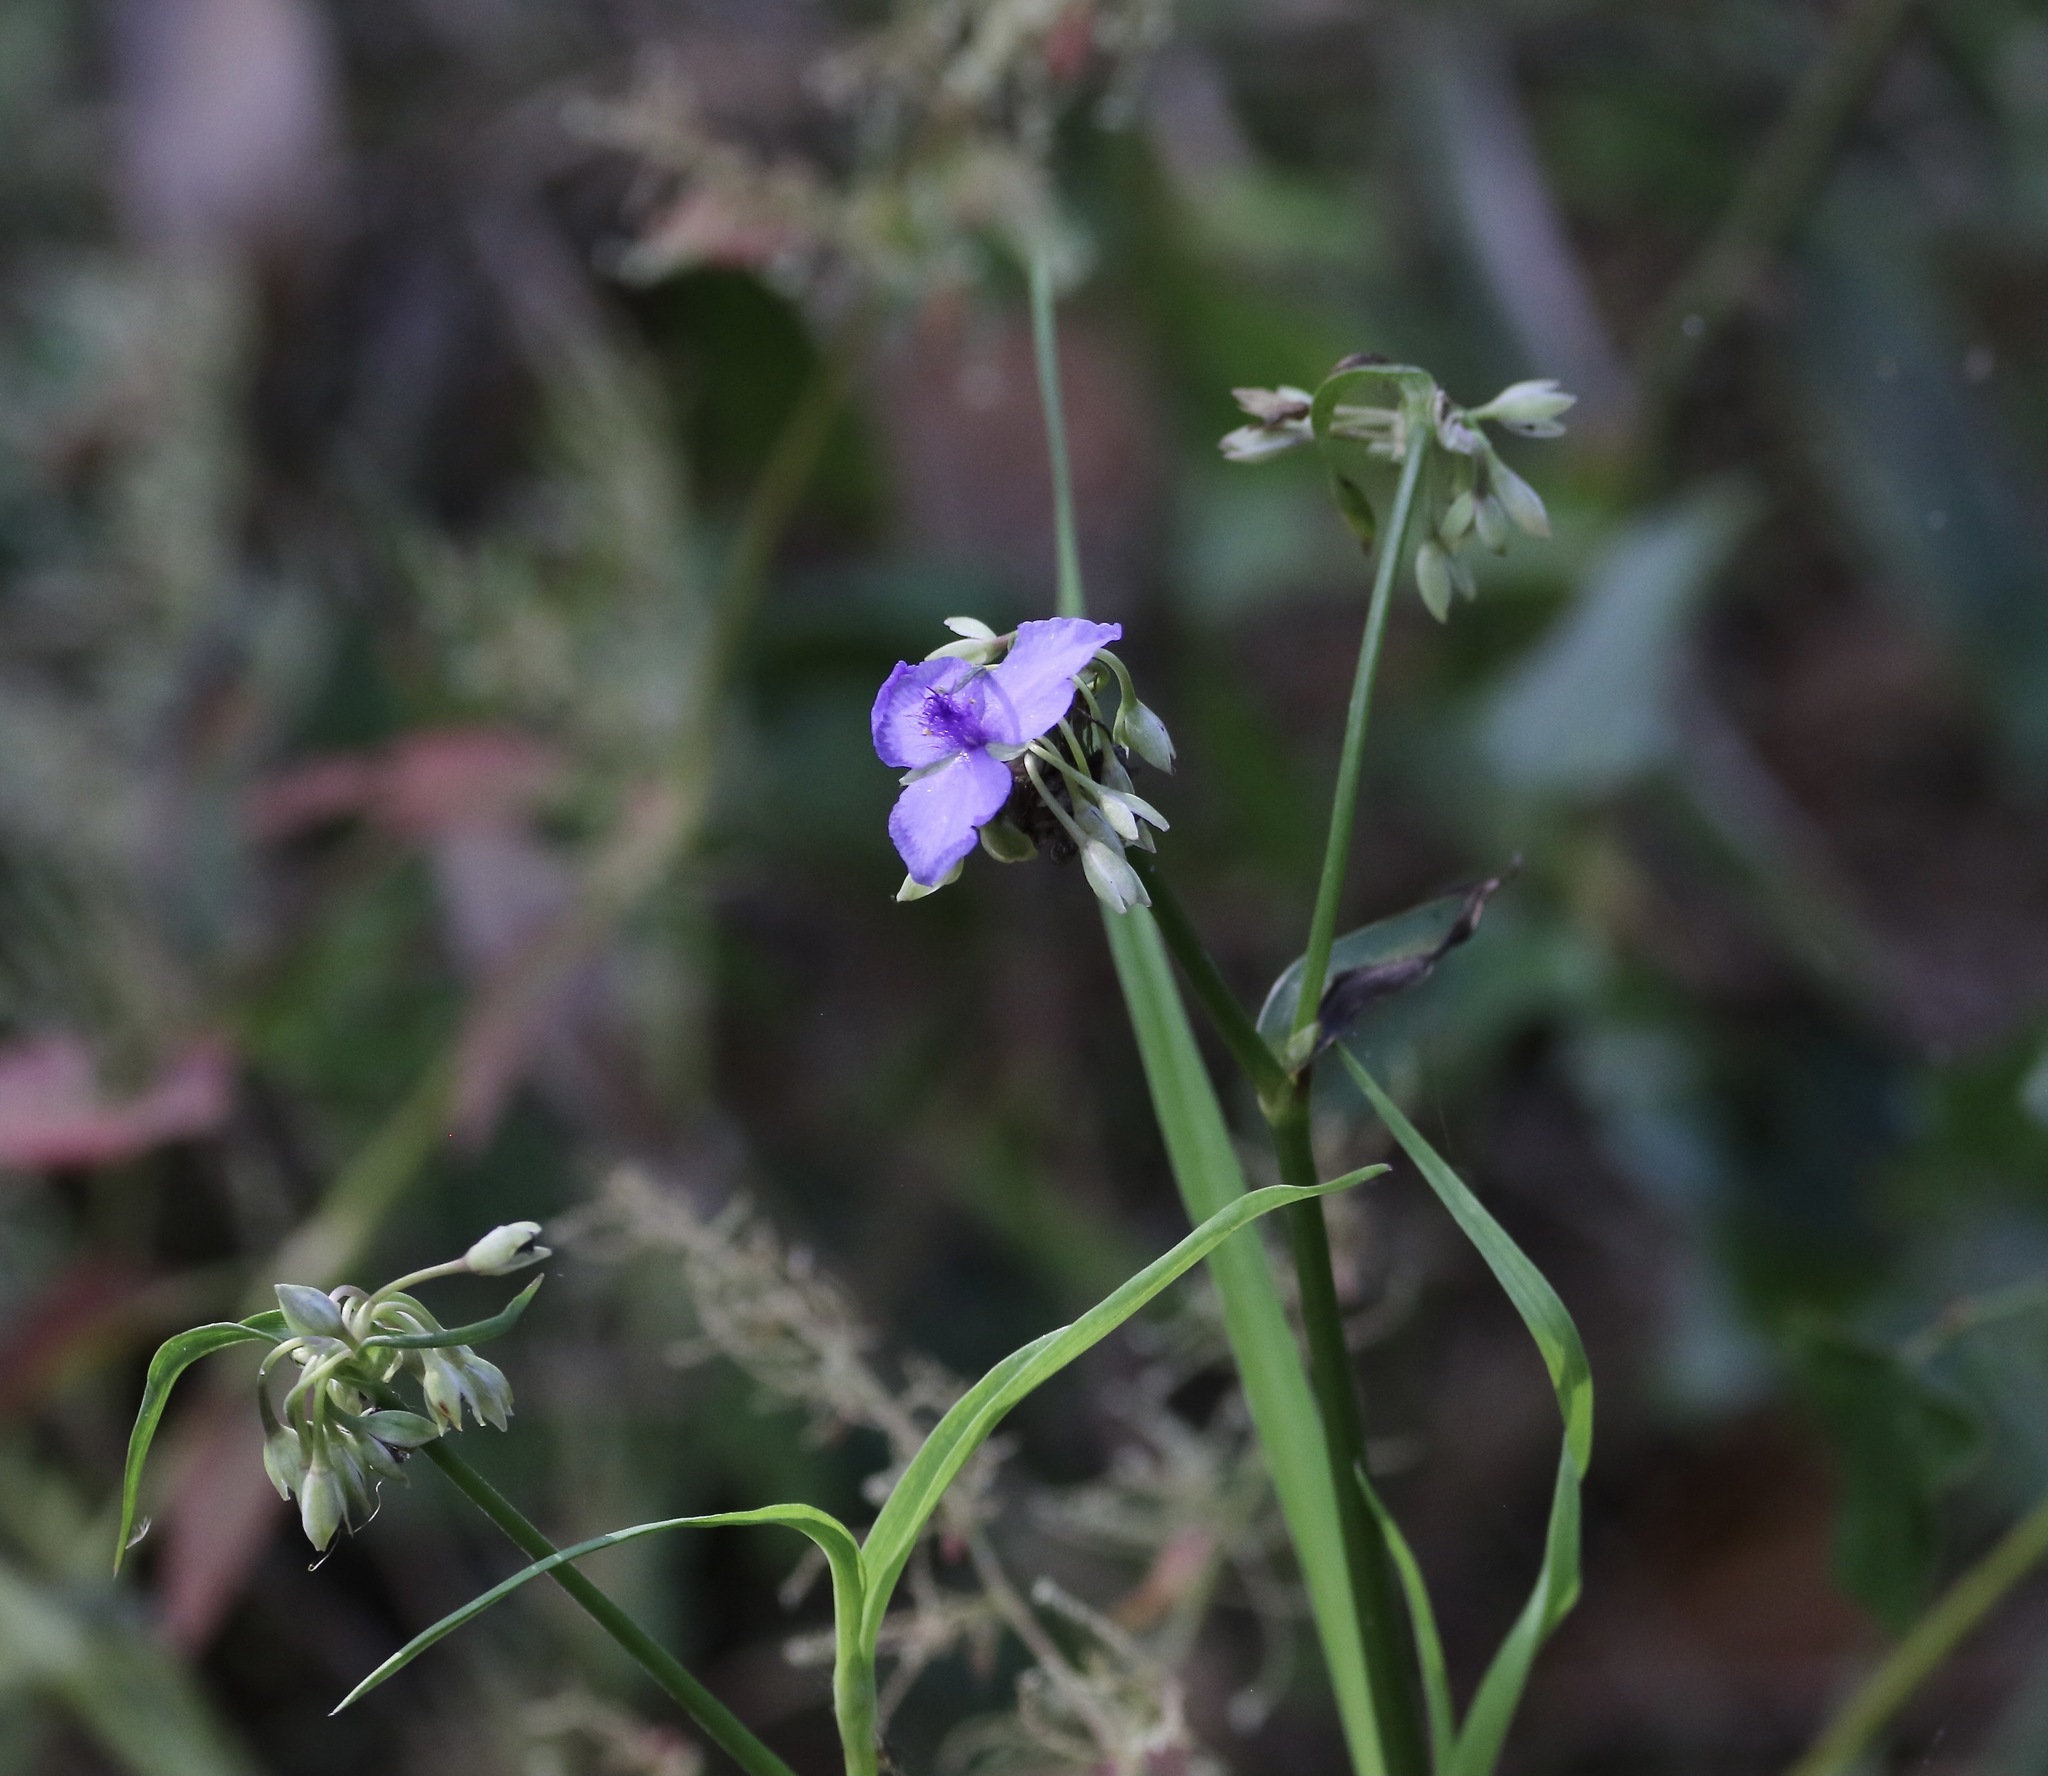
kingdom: Plantae
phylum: Tracheophyta
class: Liliopsida
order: Commelinales
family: Commelinaceae
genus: Tradescantia
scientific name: Tradescantia ohiensis
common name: Ohio spiderwort
